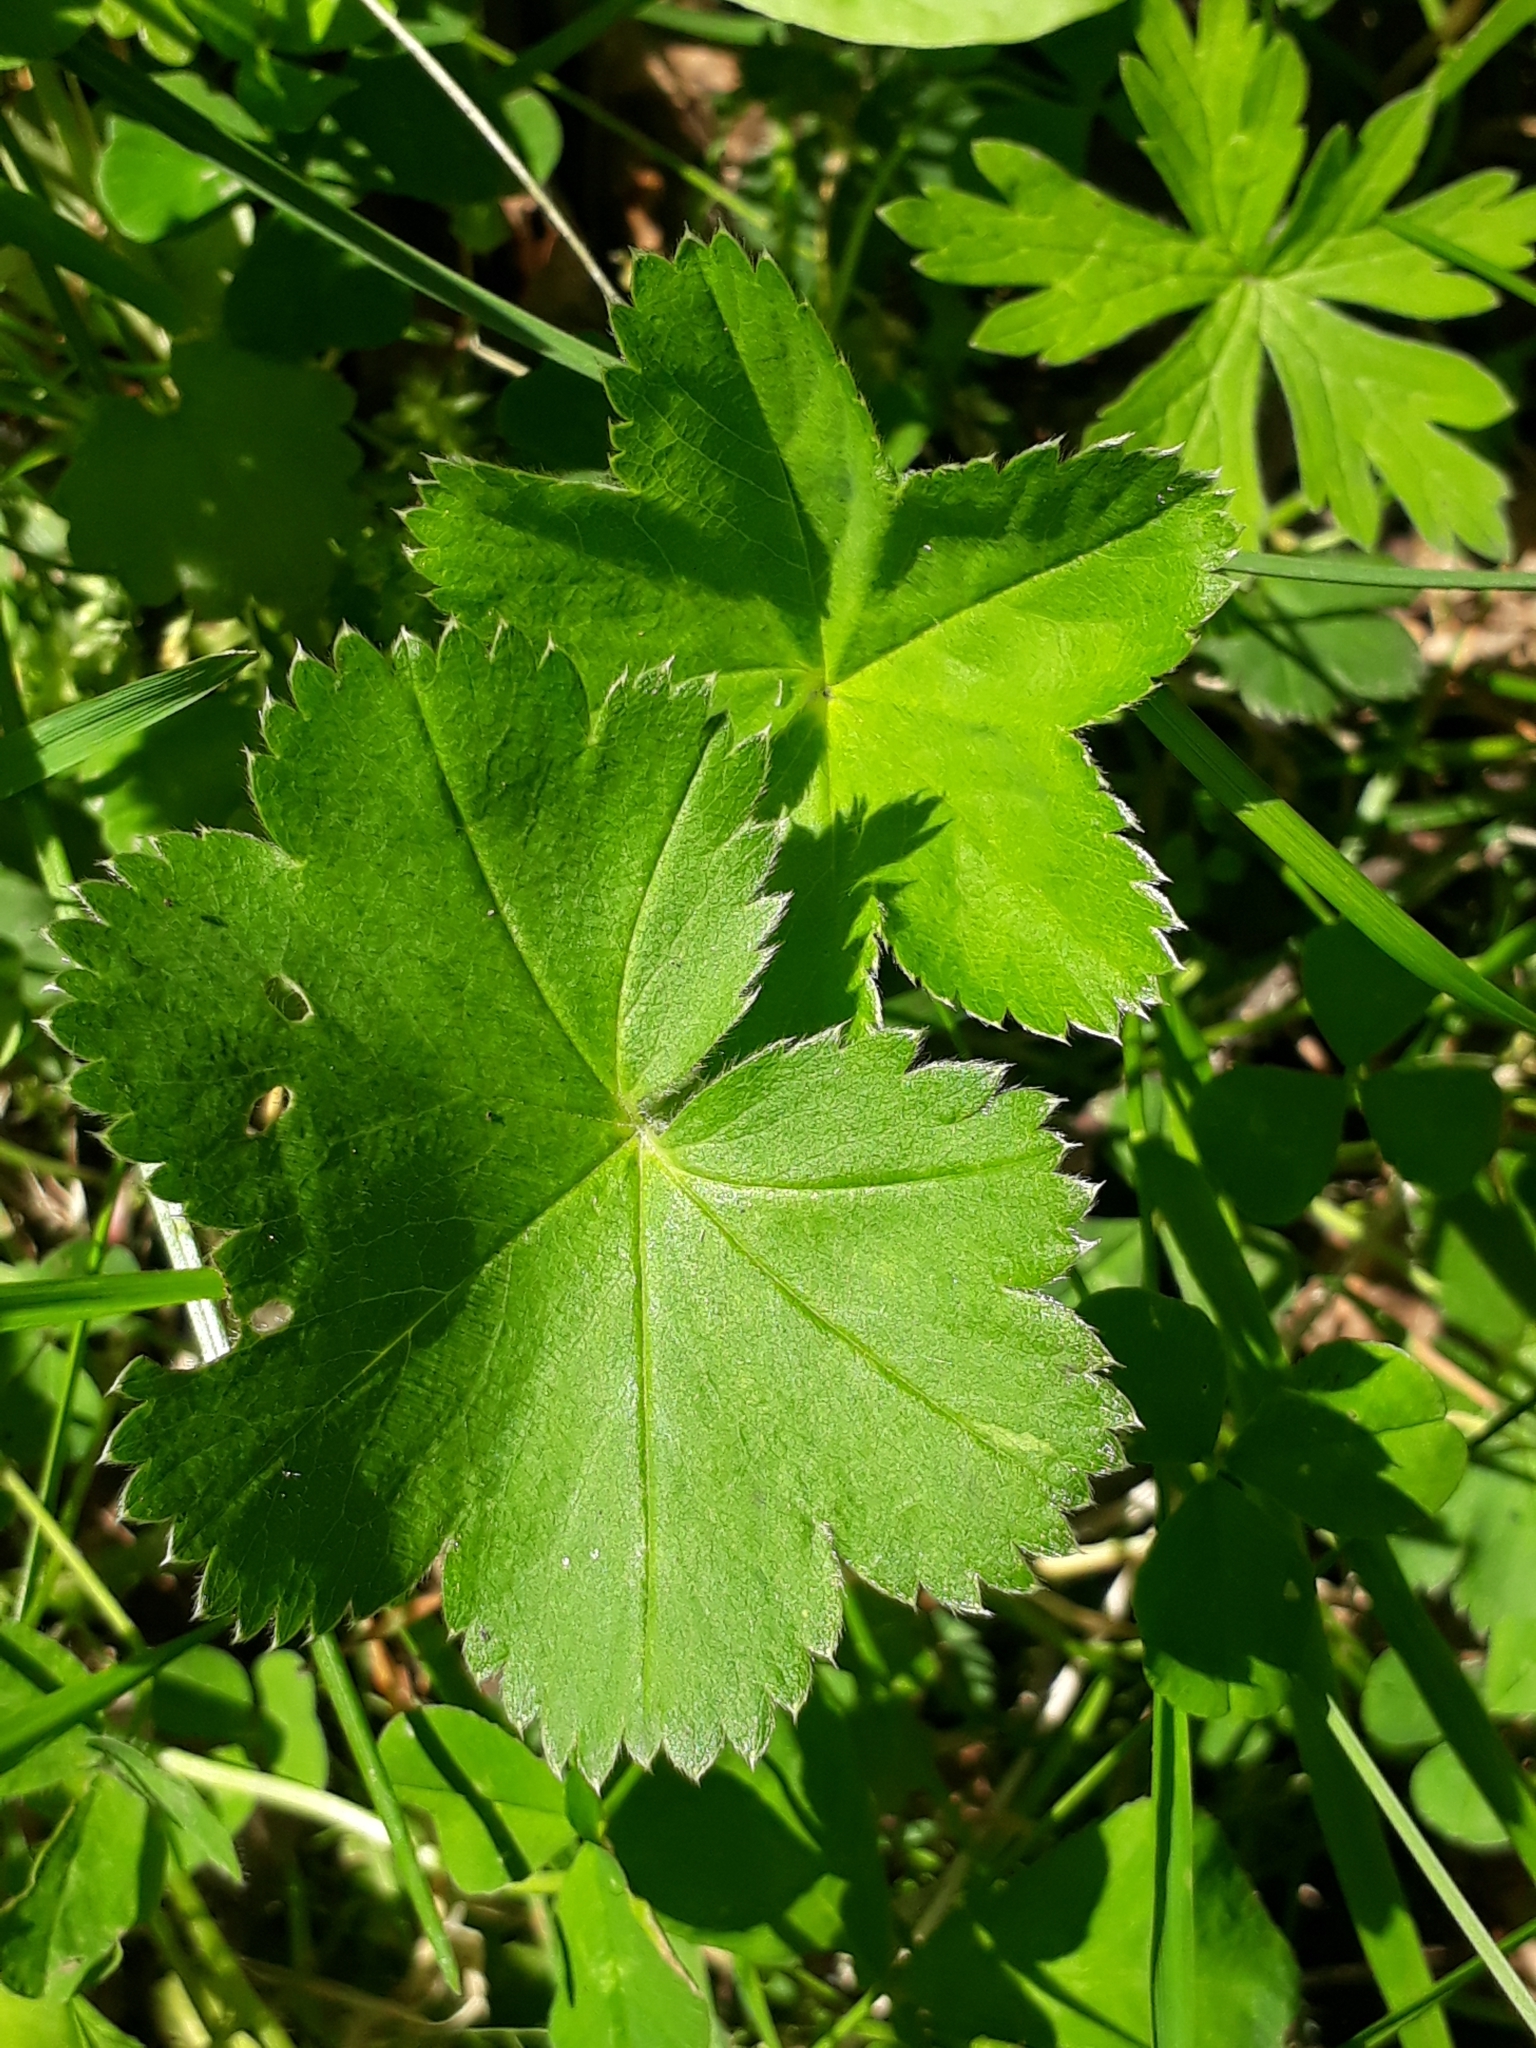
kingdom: Plantae
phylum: Tracheophyta
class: Magnoliopsida
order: Rosales
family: Rosaceae
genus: Alchemilla
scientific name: Alchemilla
